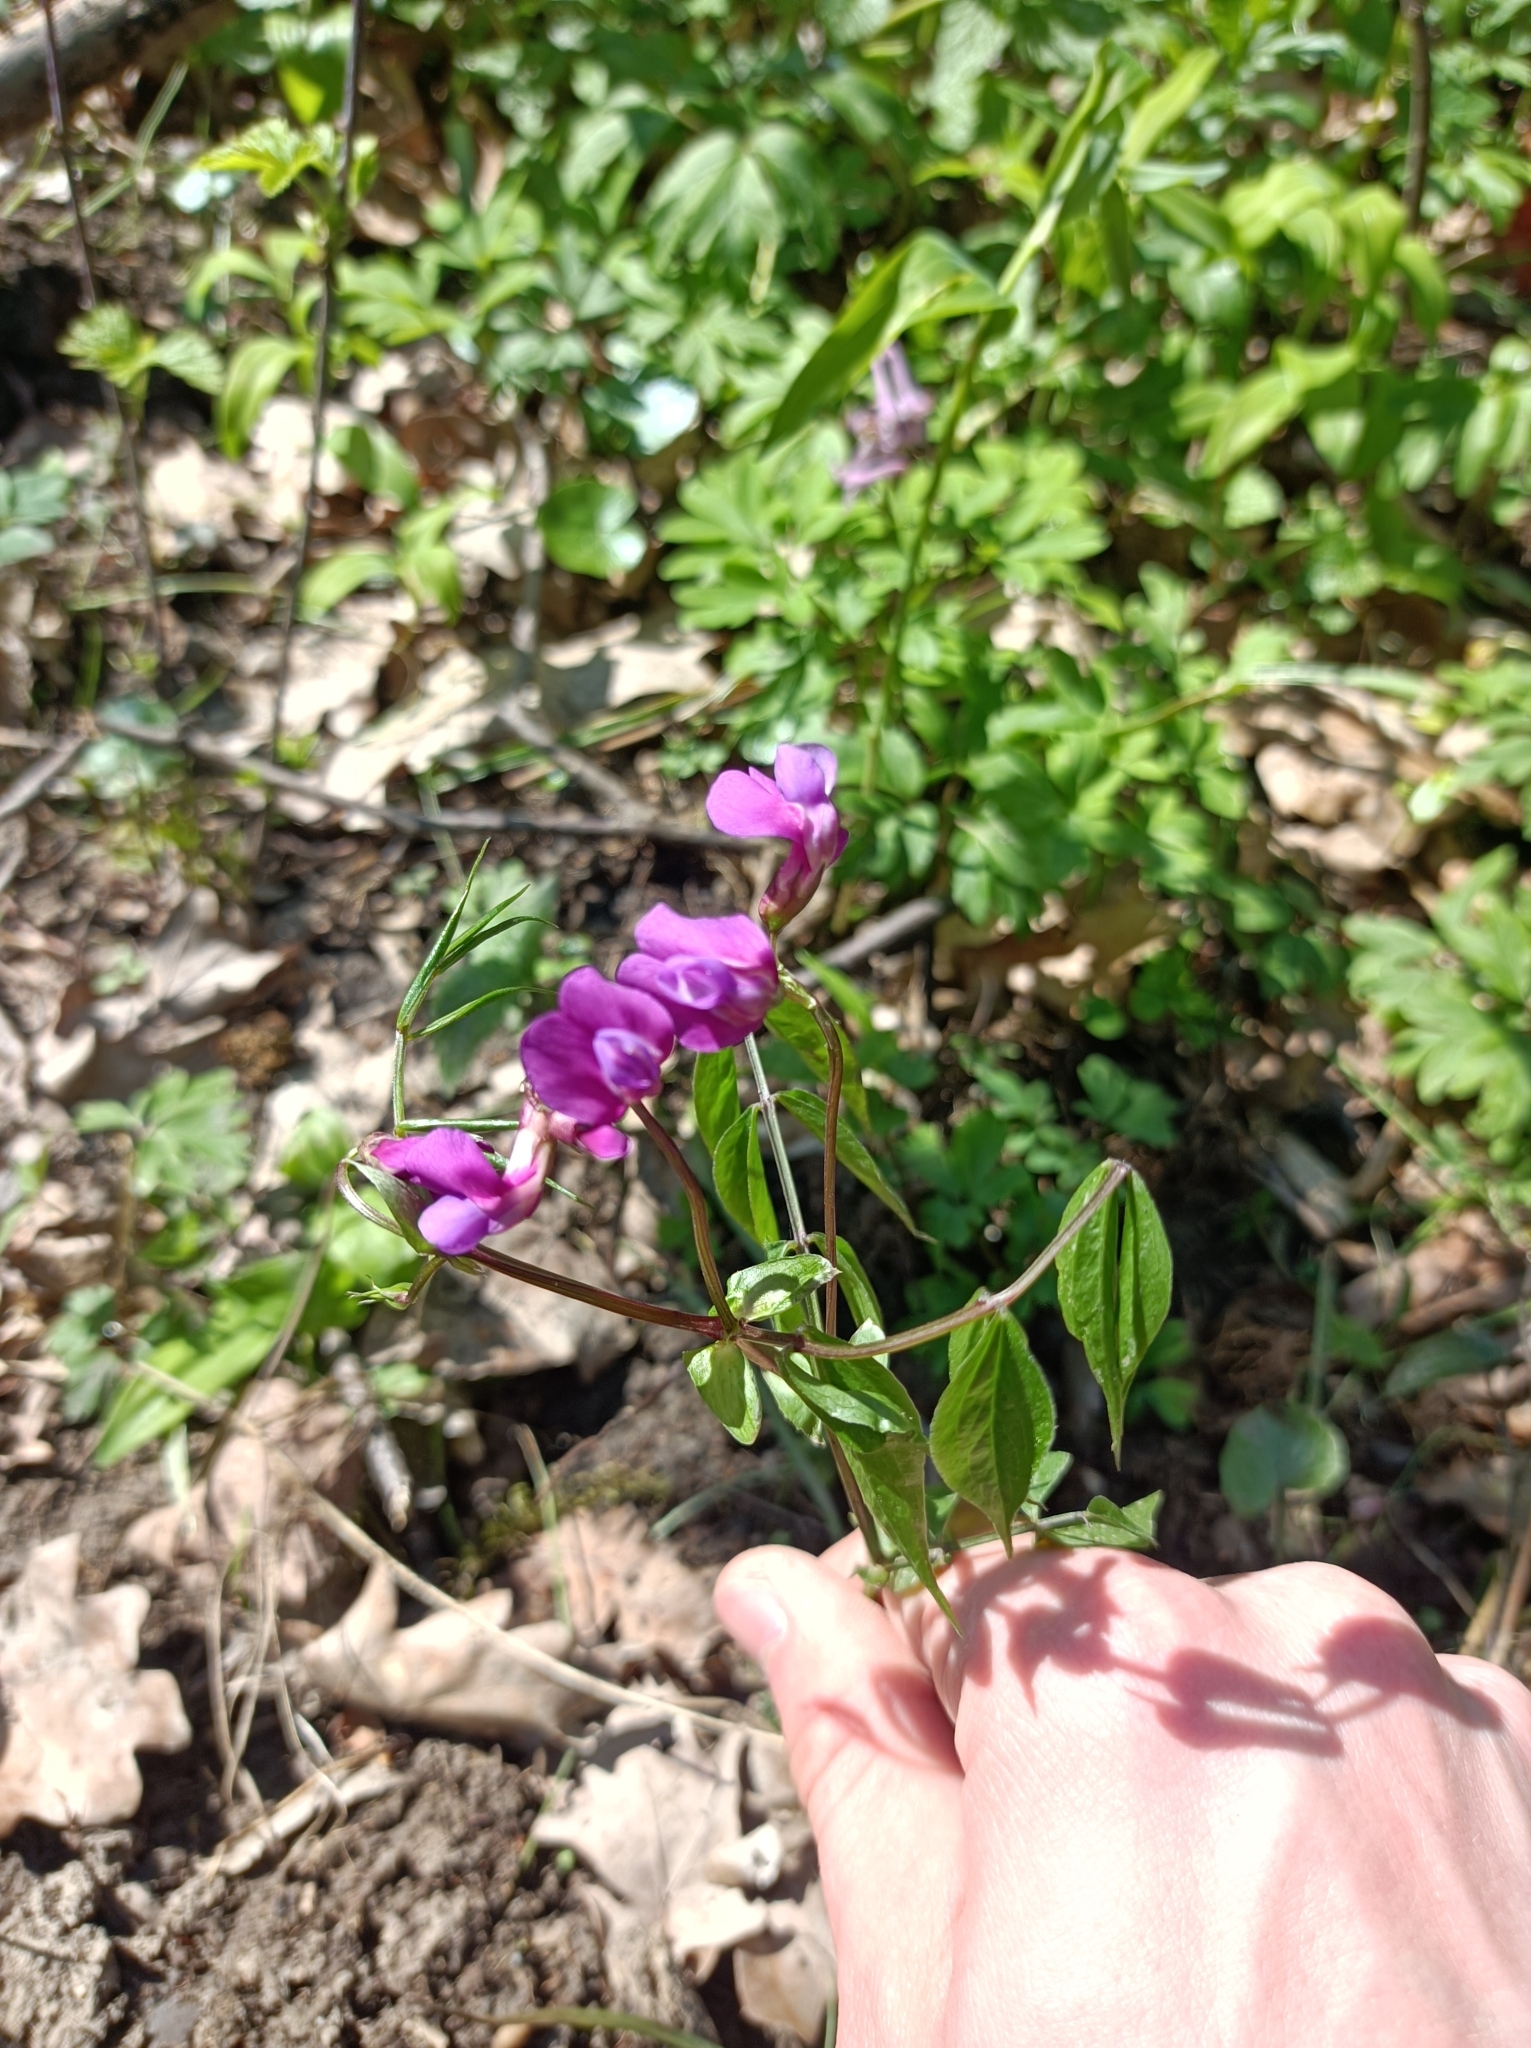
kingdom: Plantae
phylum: Tracheophyta
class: Magnoliopsida
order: Fabales
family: Fabaceae
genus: Lathyrus
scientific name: Lathyrus vernus
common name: Spring pea
